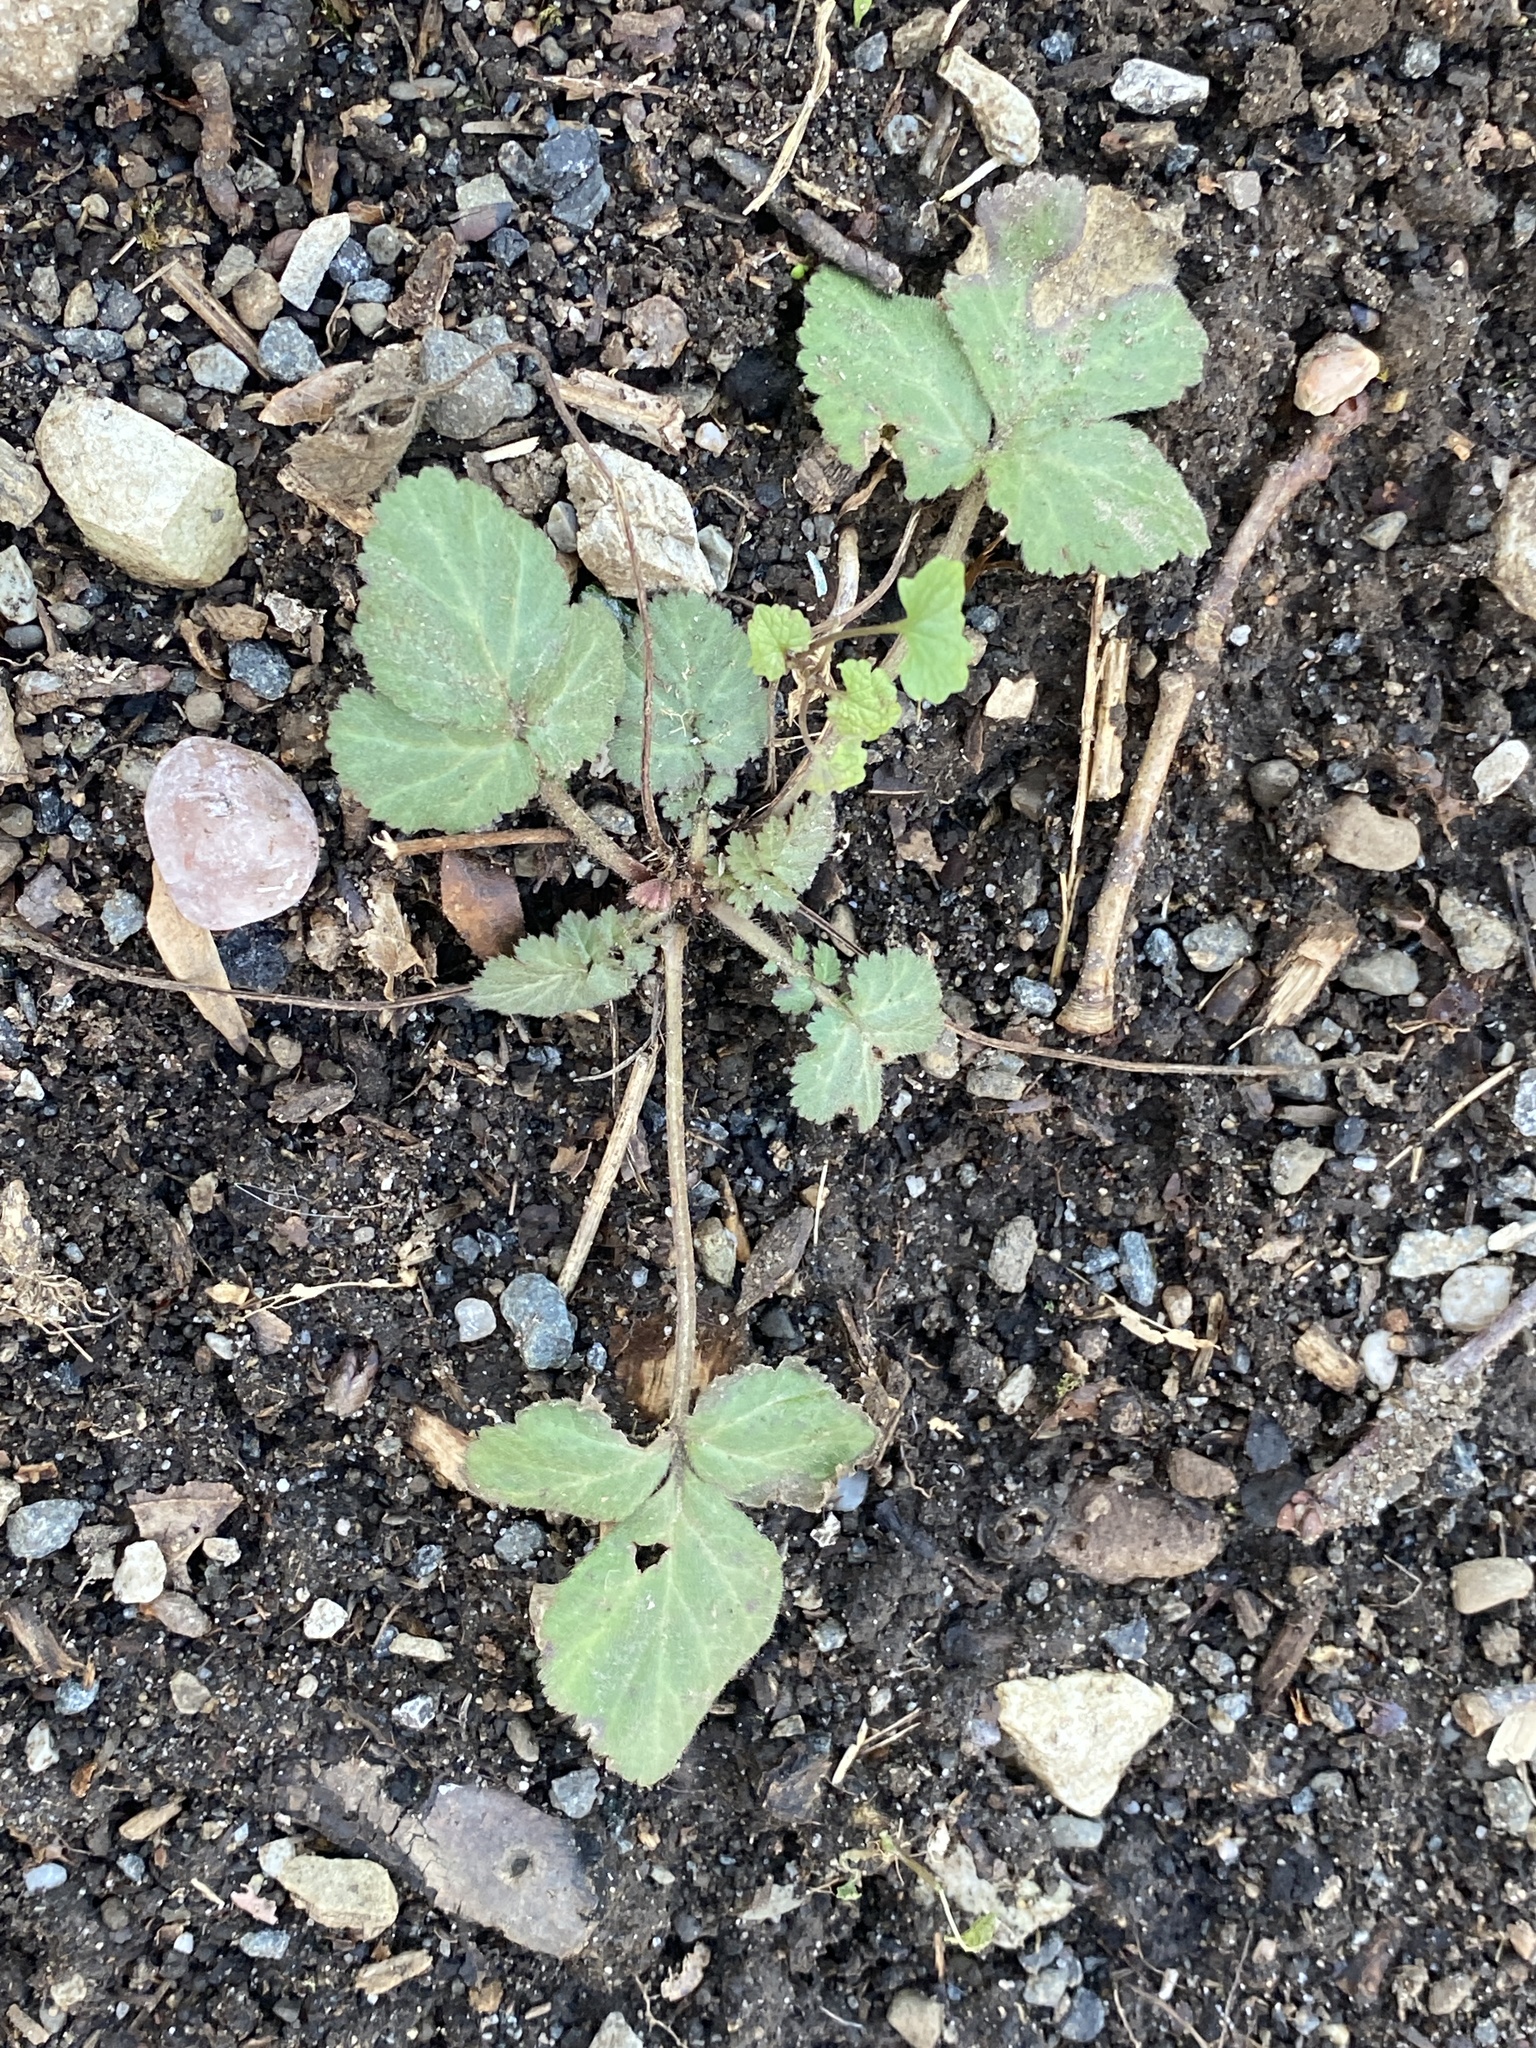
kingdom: Plantae
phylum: Tracheophyta
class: Magnoliopsida
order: Rosales
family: Rosaceae
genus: Geum
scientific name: Geum canadense
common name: White avens
